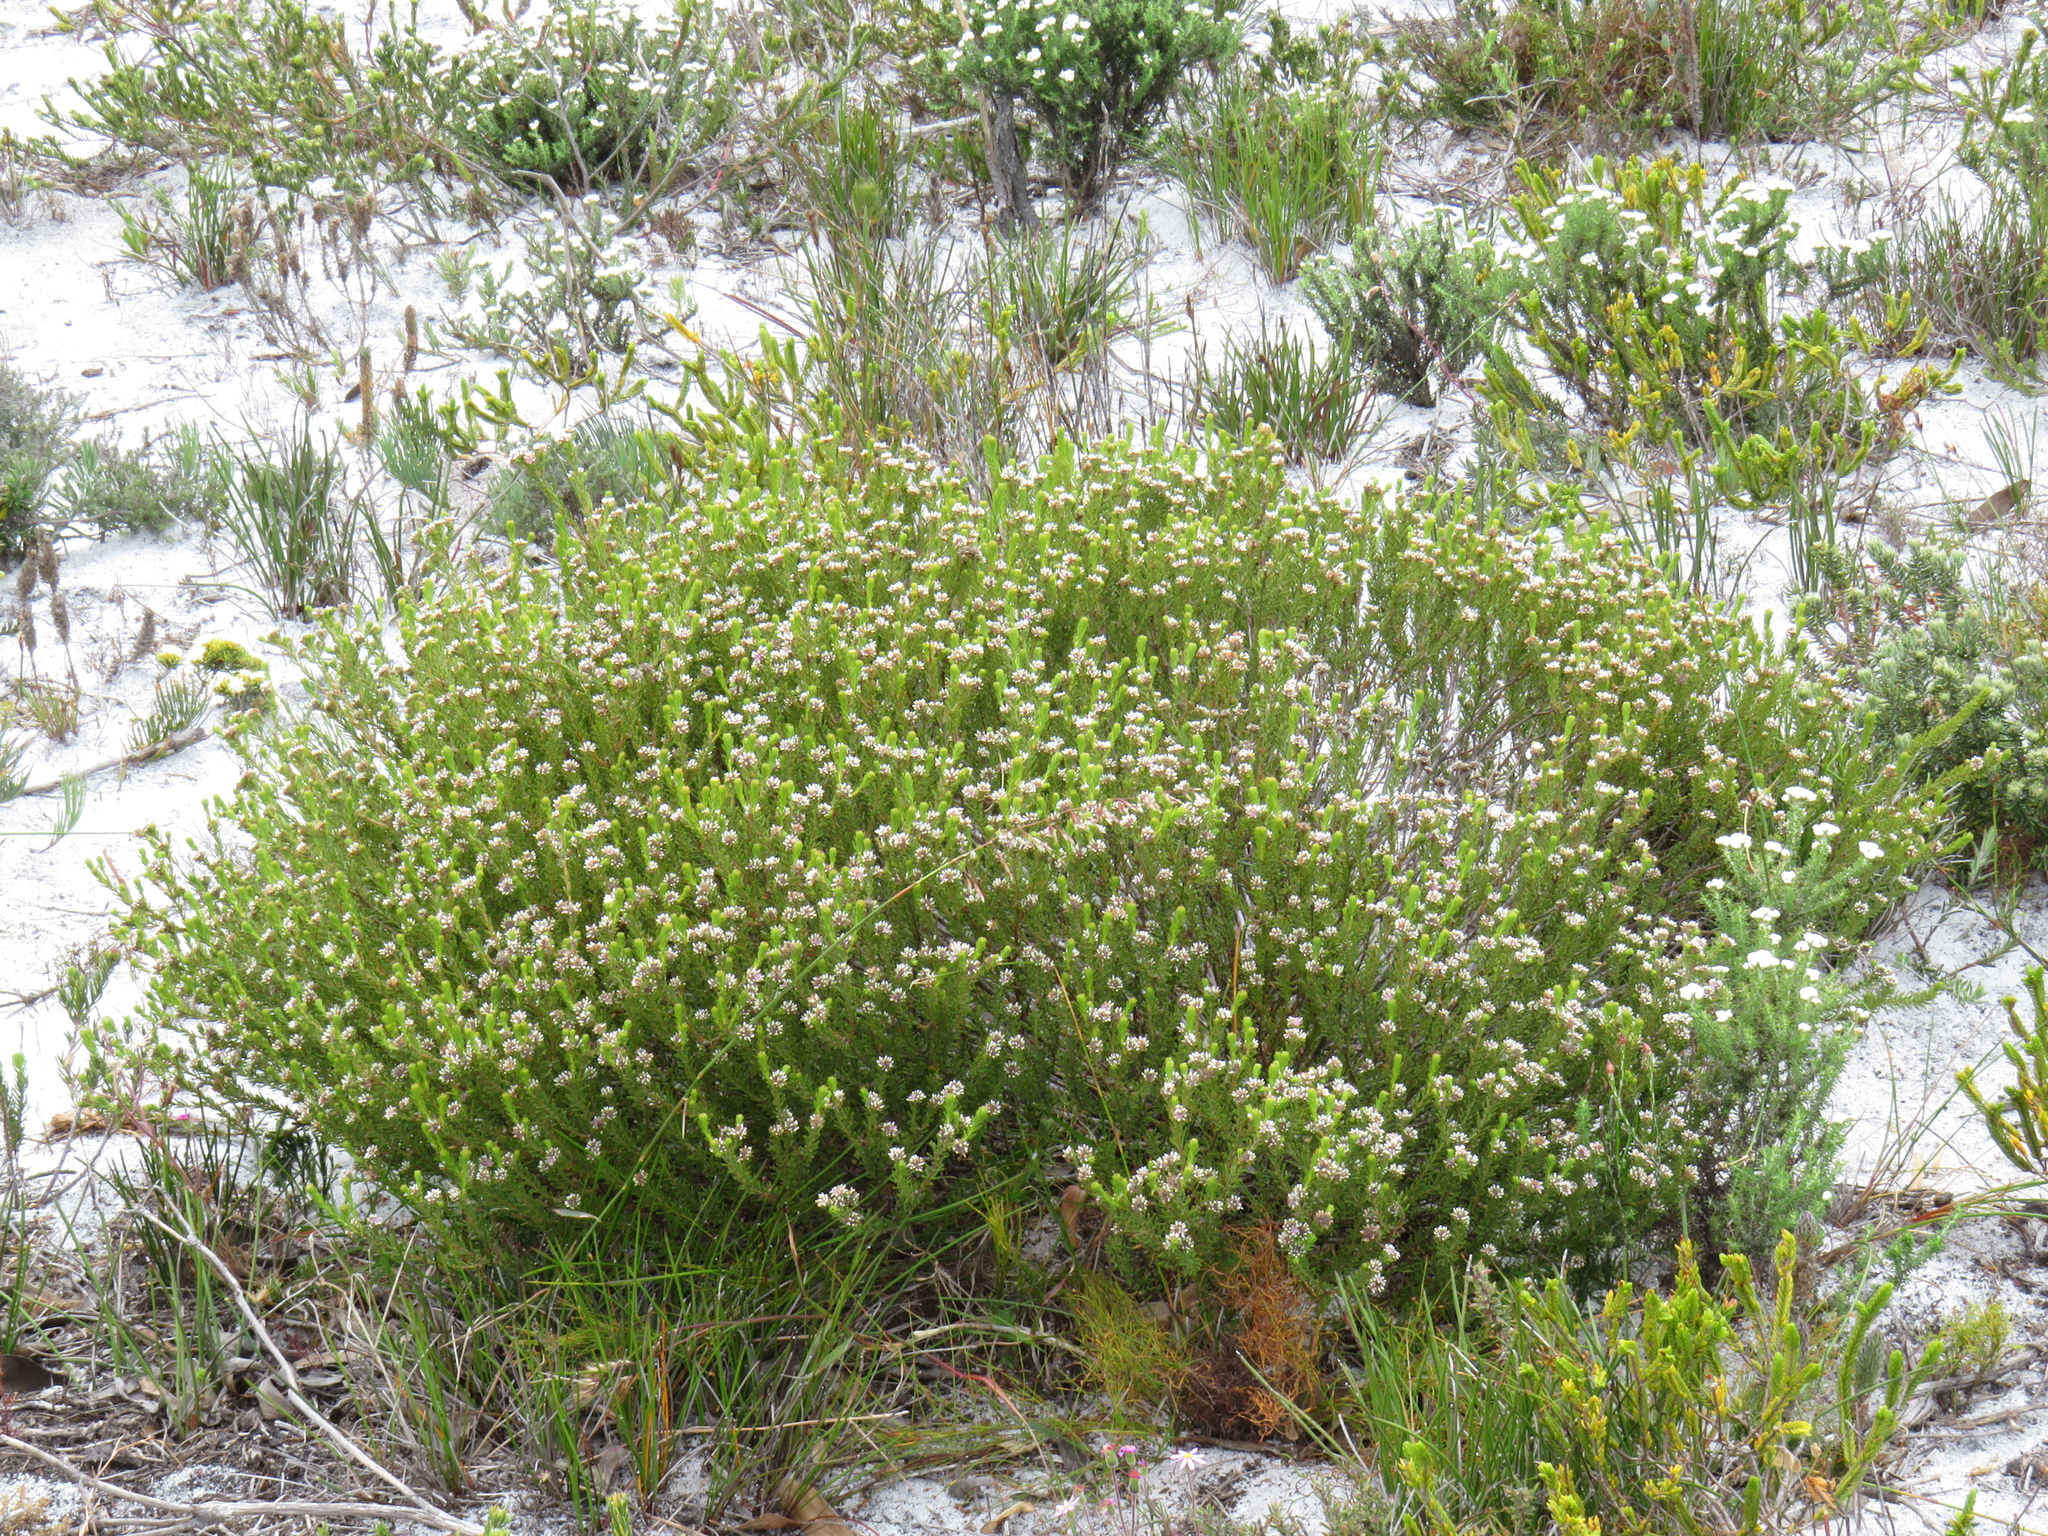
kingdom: Plantae
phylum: Tracheophyta
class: Magnoliopsida
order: Bruniales
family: Bruniaceae
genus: Staavia
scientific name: Staavia radiata
